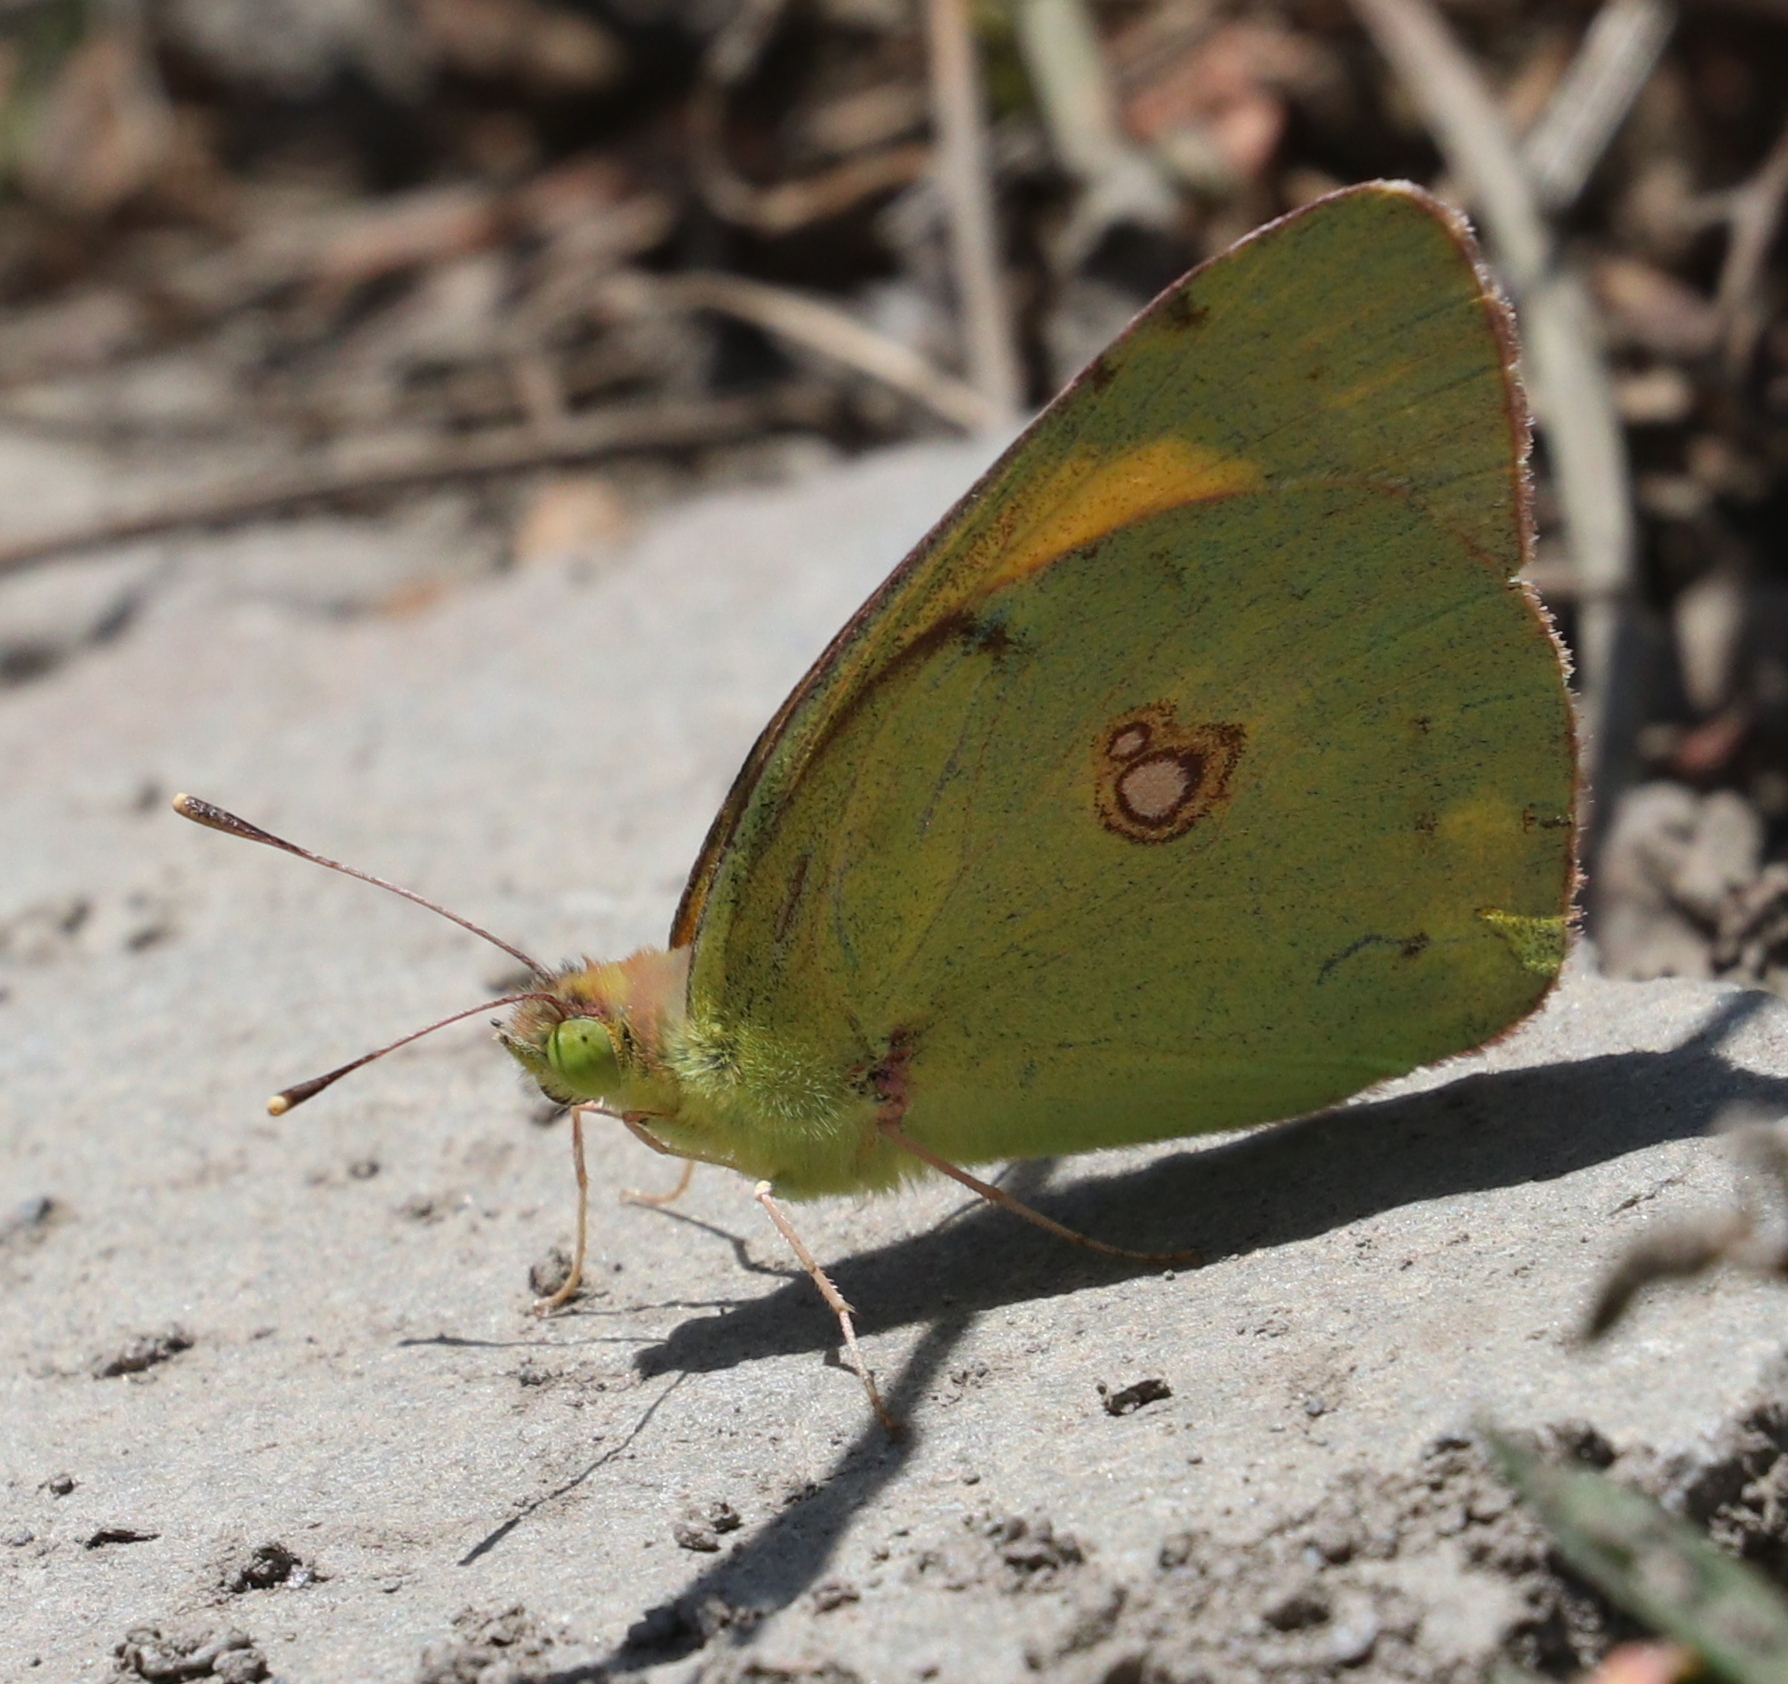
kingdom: Animalia
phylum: Arthropoda
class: Insecta
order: Lepidoptera
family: Pieridae
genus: Colias
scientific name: Colias croceus
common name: Clouded yellow
